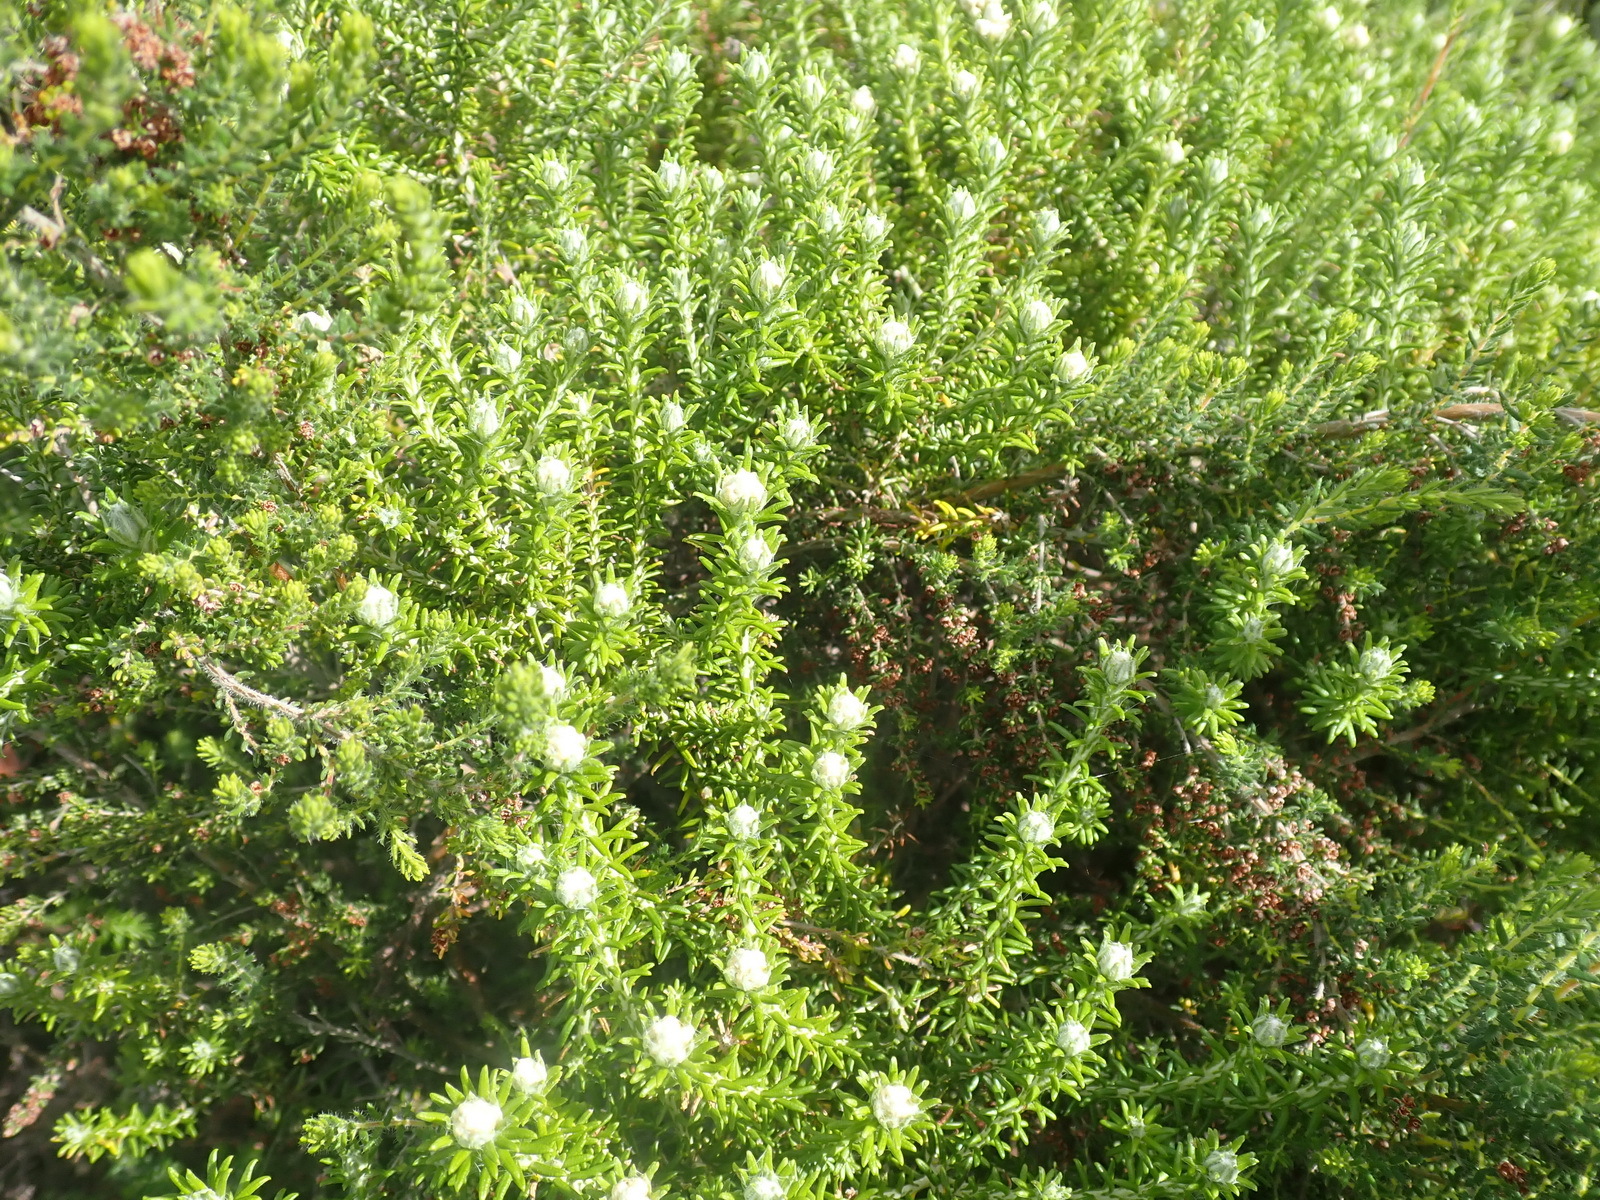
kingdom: Plantae
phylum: Tracheophyta
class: Magnoliopsida
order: Asterales
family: Asteraceae
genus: Helichrysum
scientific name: Helichrysum teretifolium
